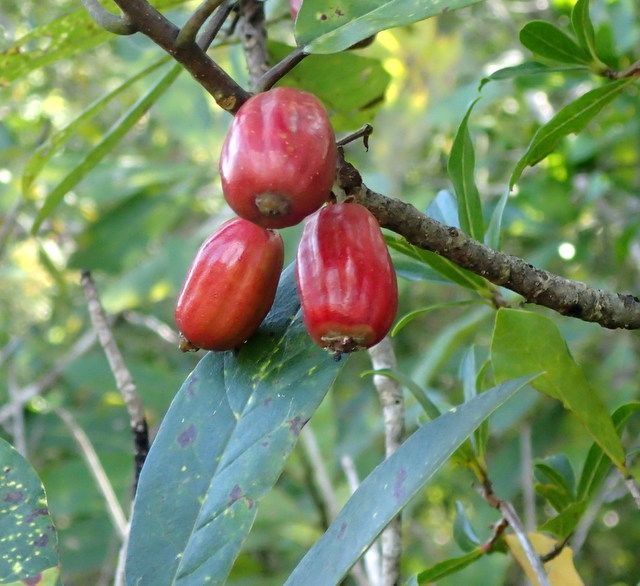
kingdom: Plantae
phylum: Tracheophyta
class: Magnoliopsida
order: Cornales
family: Nyssaceae
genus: Nyssa
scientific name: Nyssa ogeche
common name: Ogeechee tupelo
